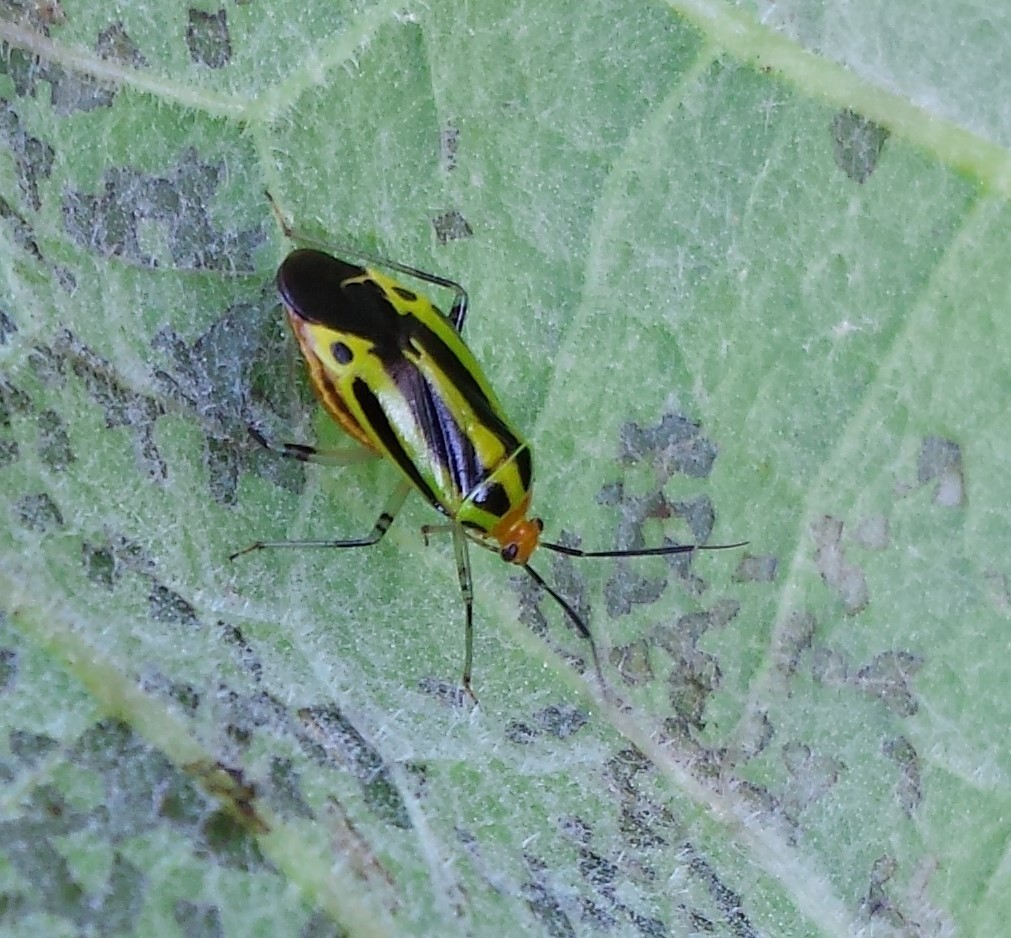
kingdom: Animalia
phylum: Arthropoda
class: Insecta
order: Hemiptera
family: Miridae
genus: Poecilocapsus
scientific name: Poecilocapsus lineatus
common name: Four-lined plant bug
